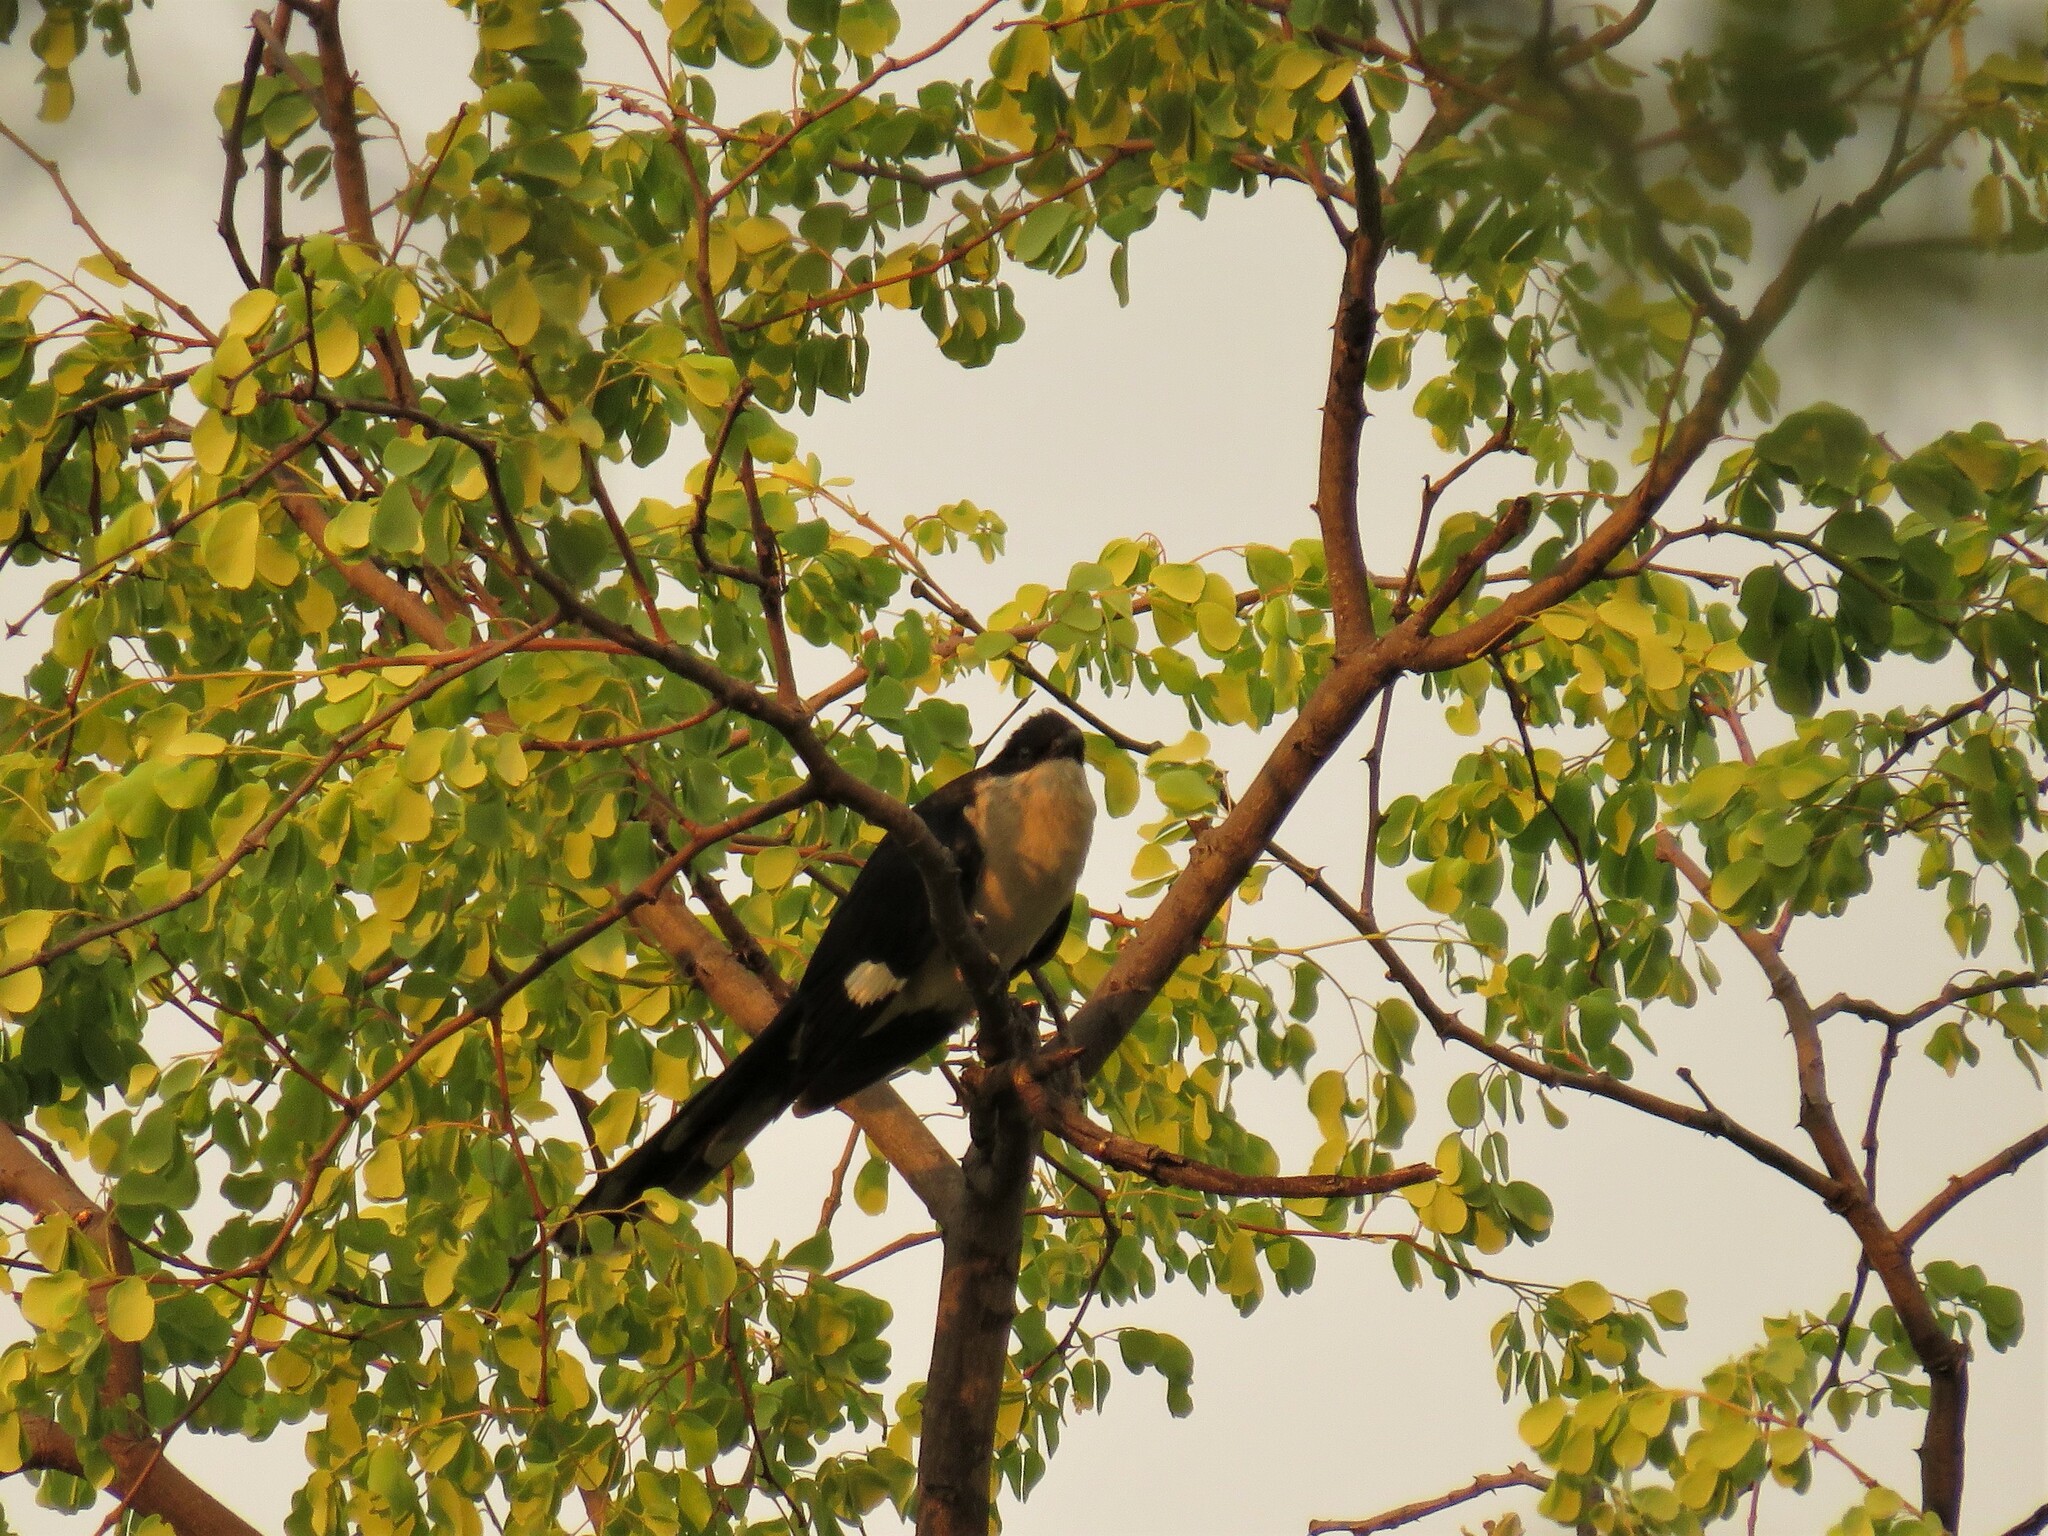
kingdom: Animalia
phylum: Chordata
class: Aves
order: Cuculiformes
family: Cuculidae
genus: Clamator
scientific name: Clamator jacobinus
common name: Jacobin cuckoo
